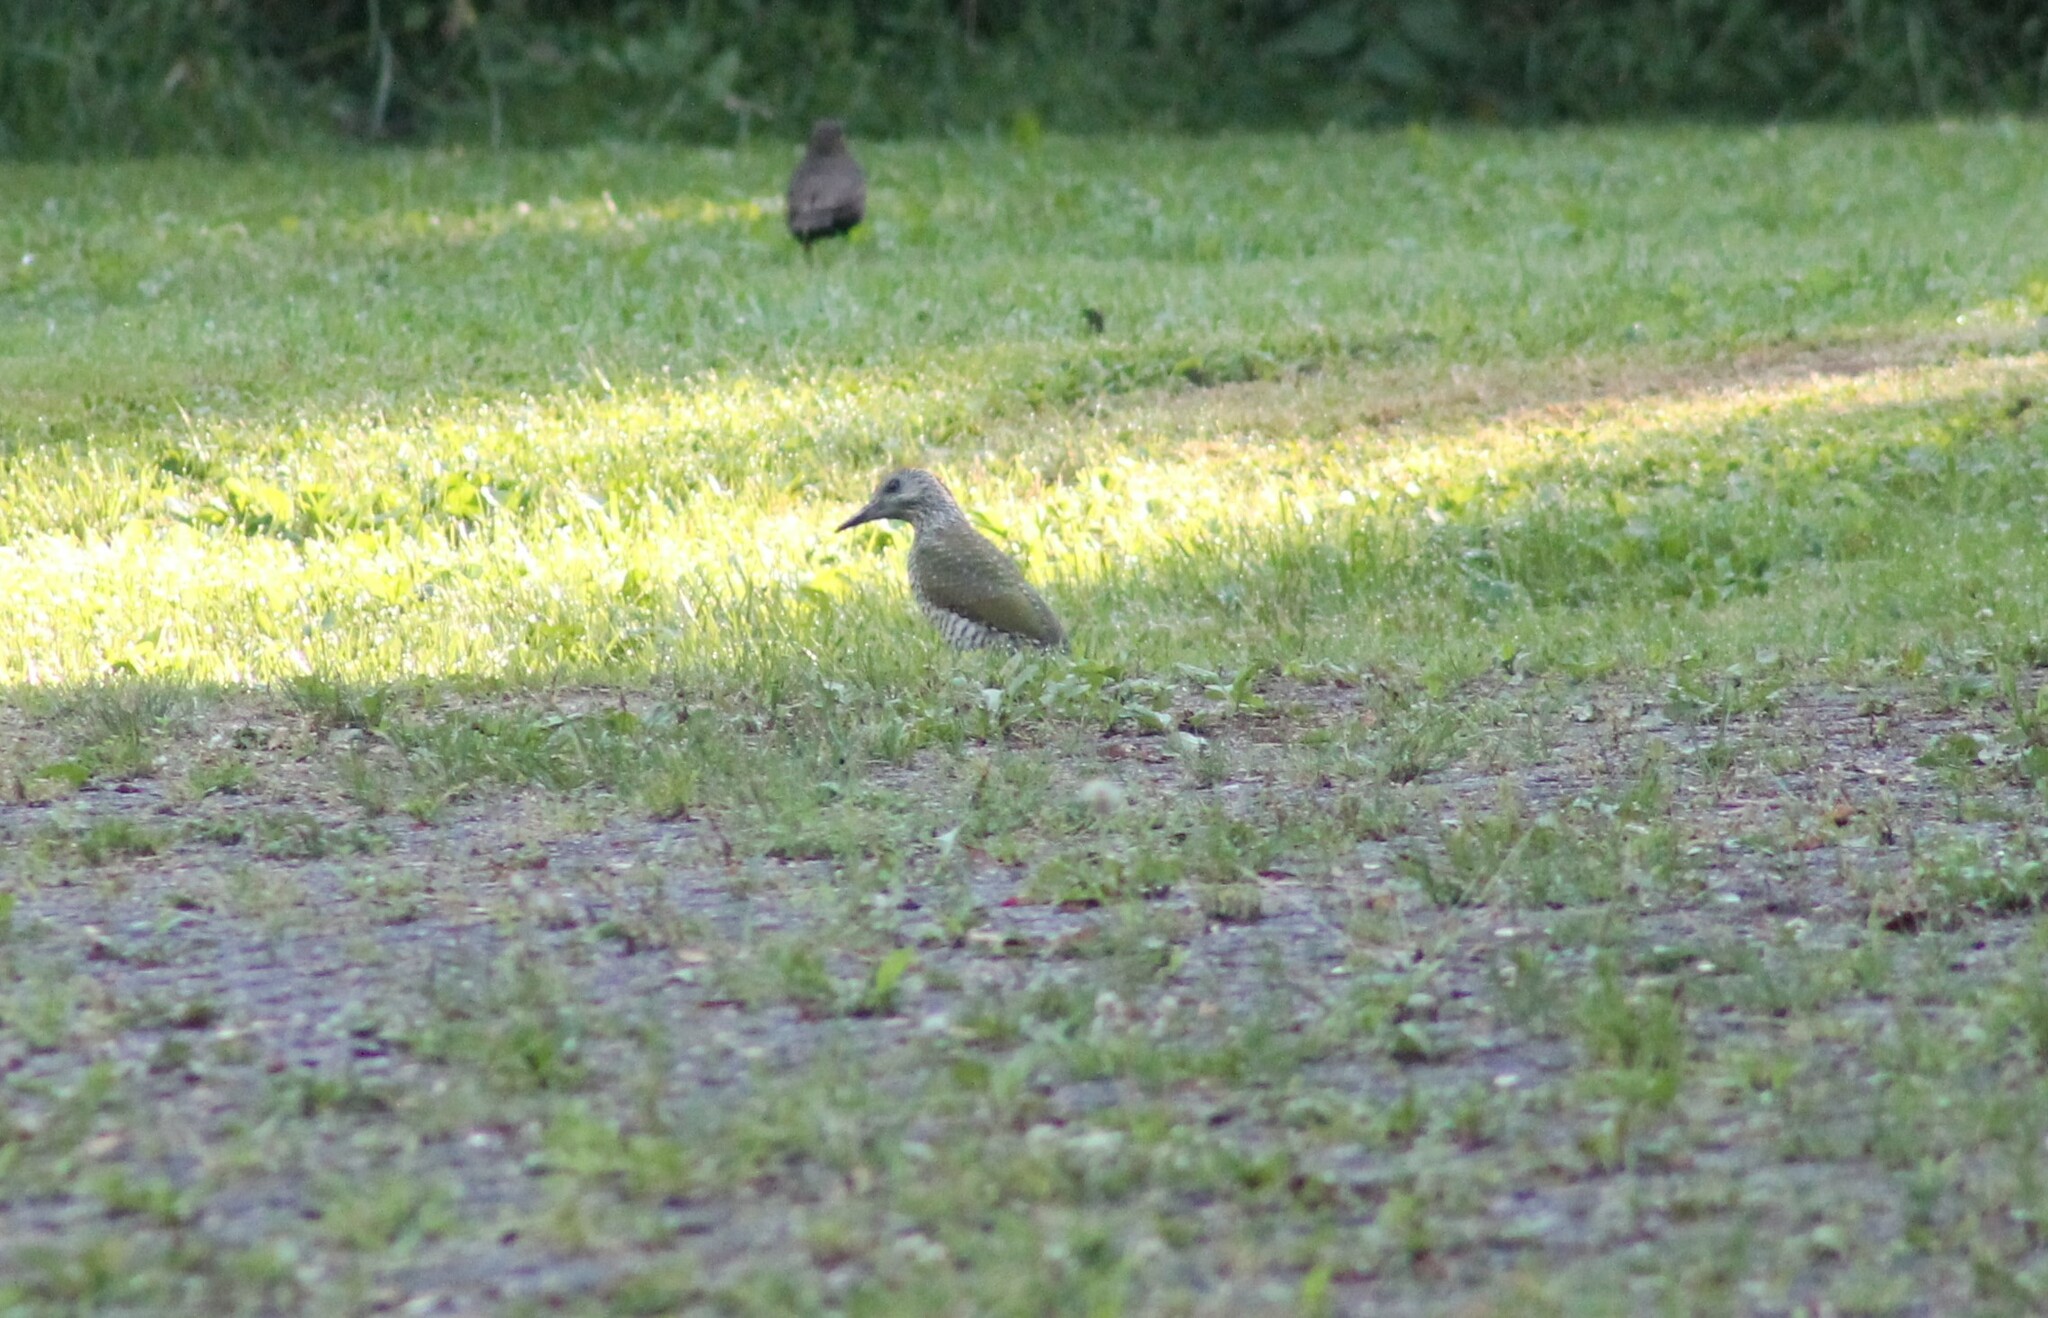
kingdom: Animalia
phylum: Chordata
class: Aves
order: Piciformes
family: Picidae
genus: Picus
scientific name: Picus viridis
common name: European green woodpecker
